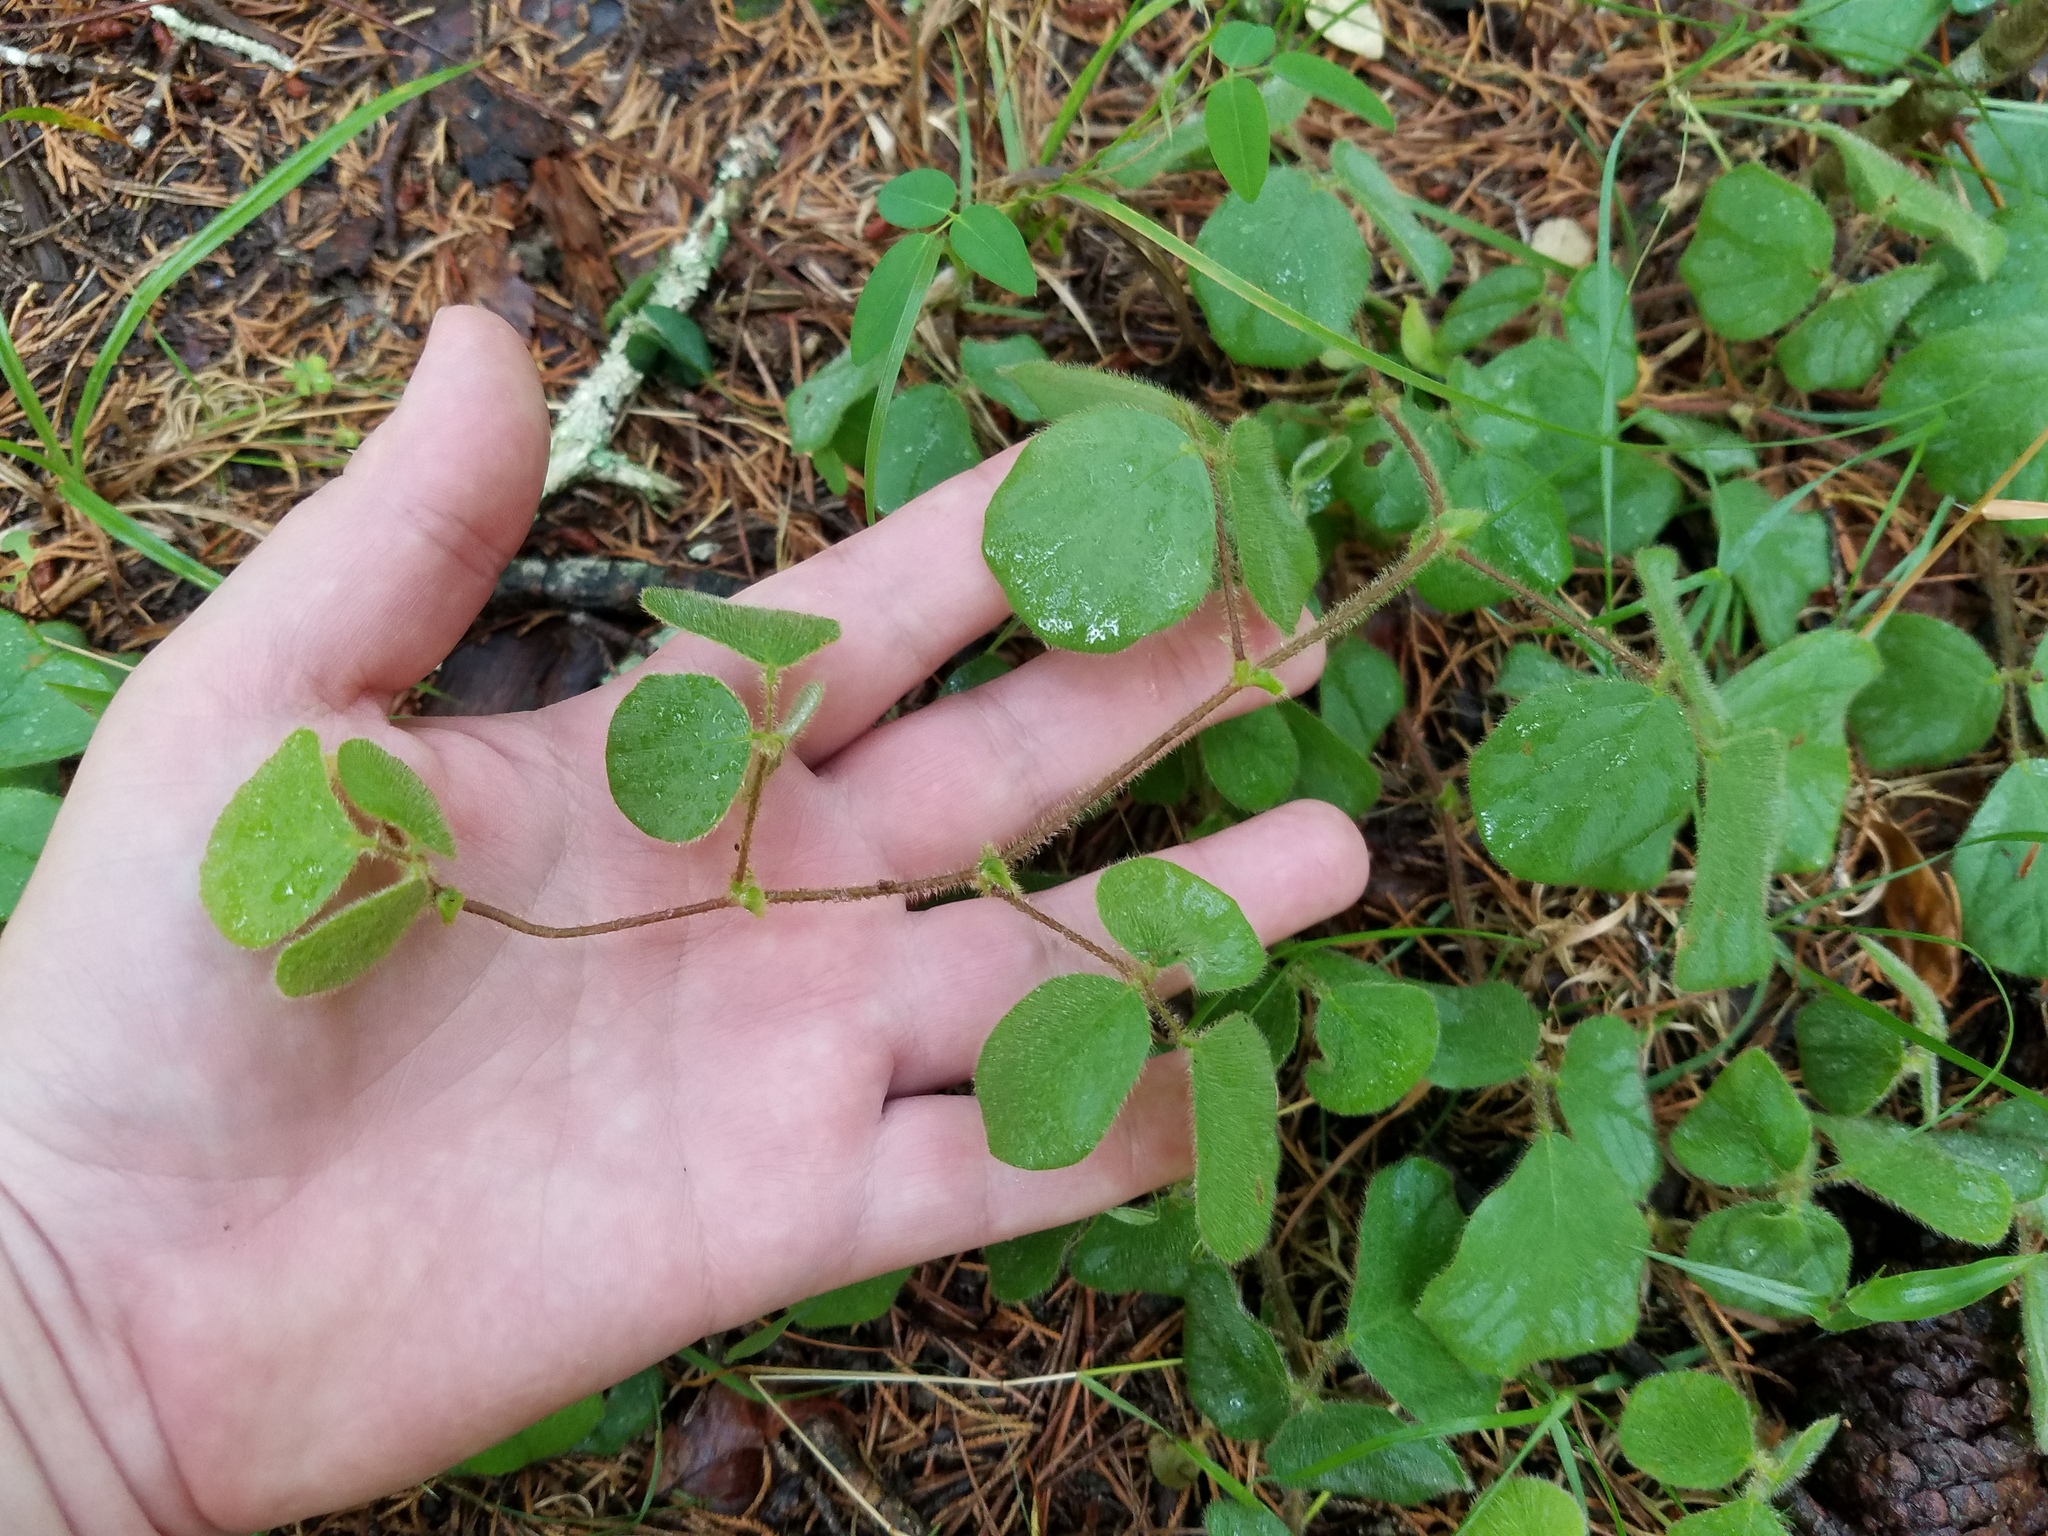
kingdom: Plantae
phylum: Tracheophyta
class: Magnoliopsida
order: Fabales
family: Fabaceae
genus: Desmodium
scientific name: Desmodium rotundifolium
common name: Dollarleaf
